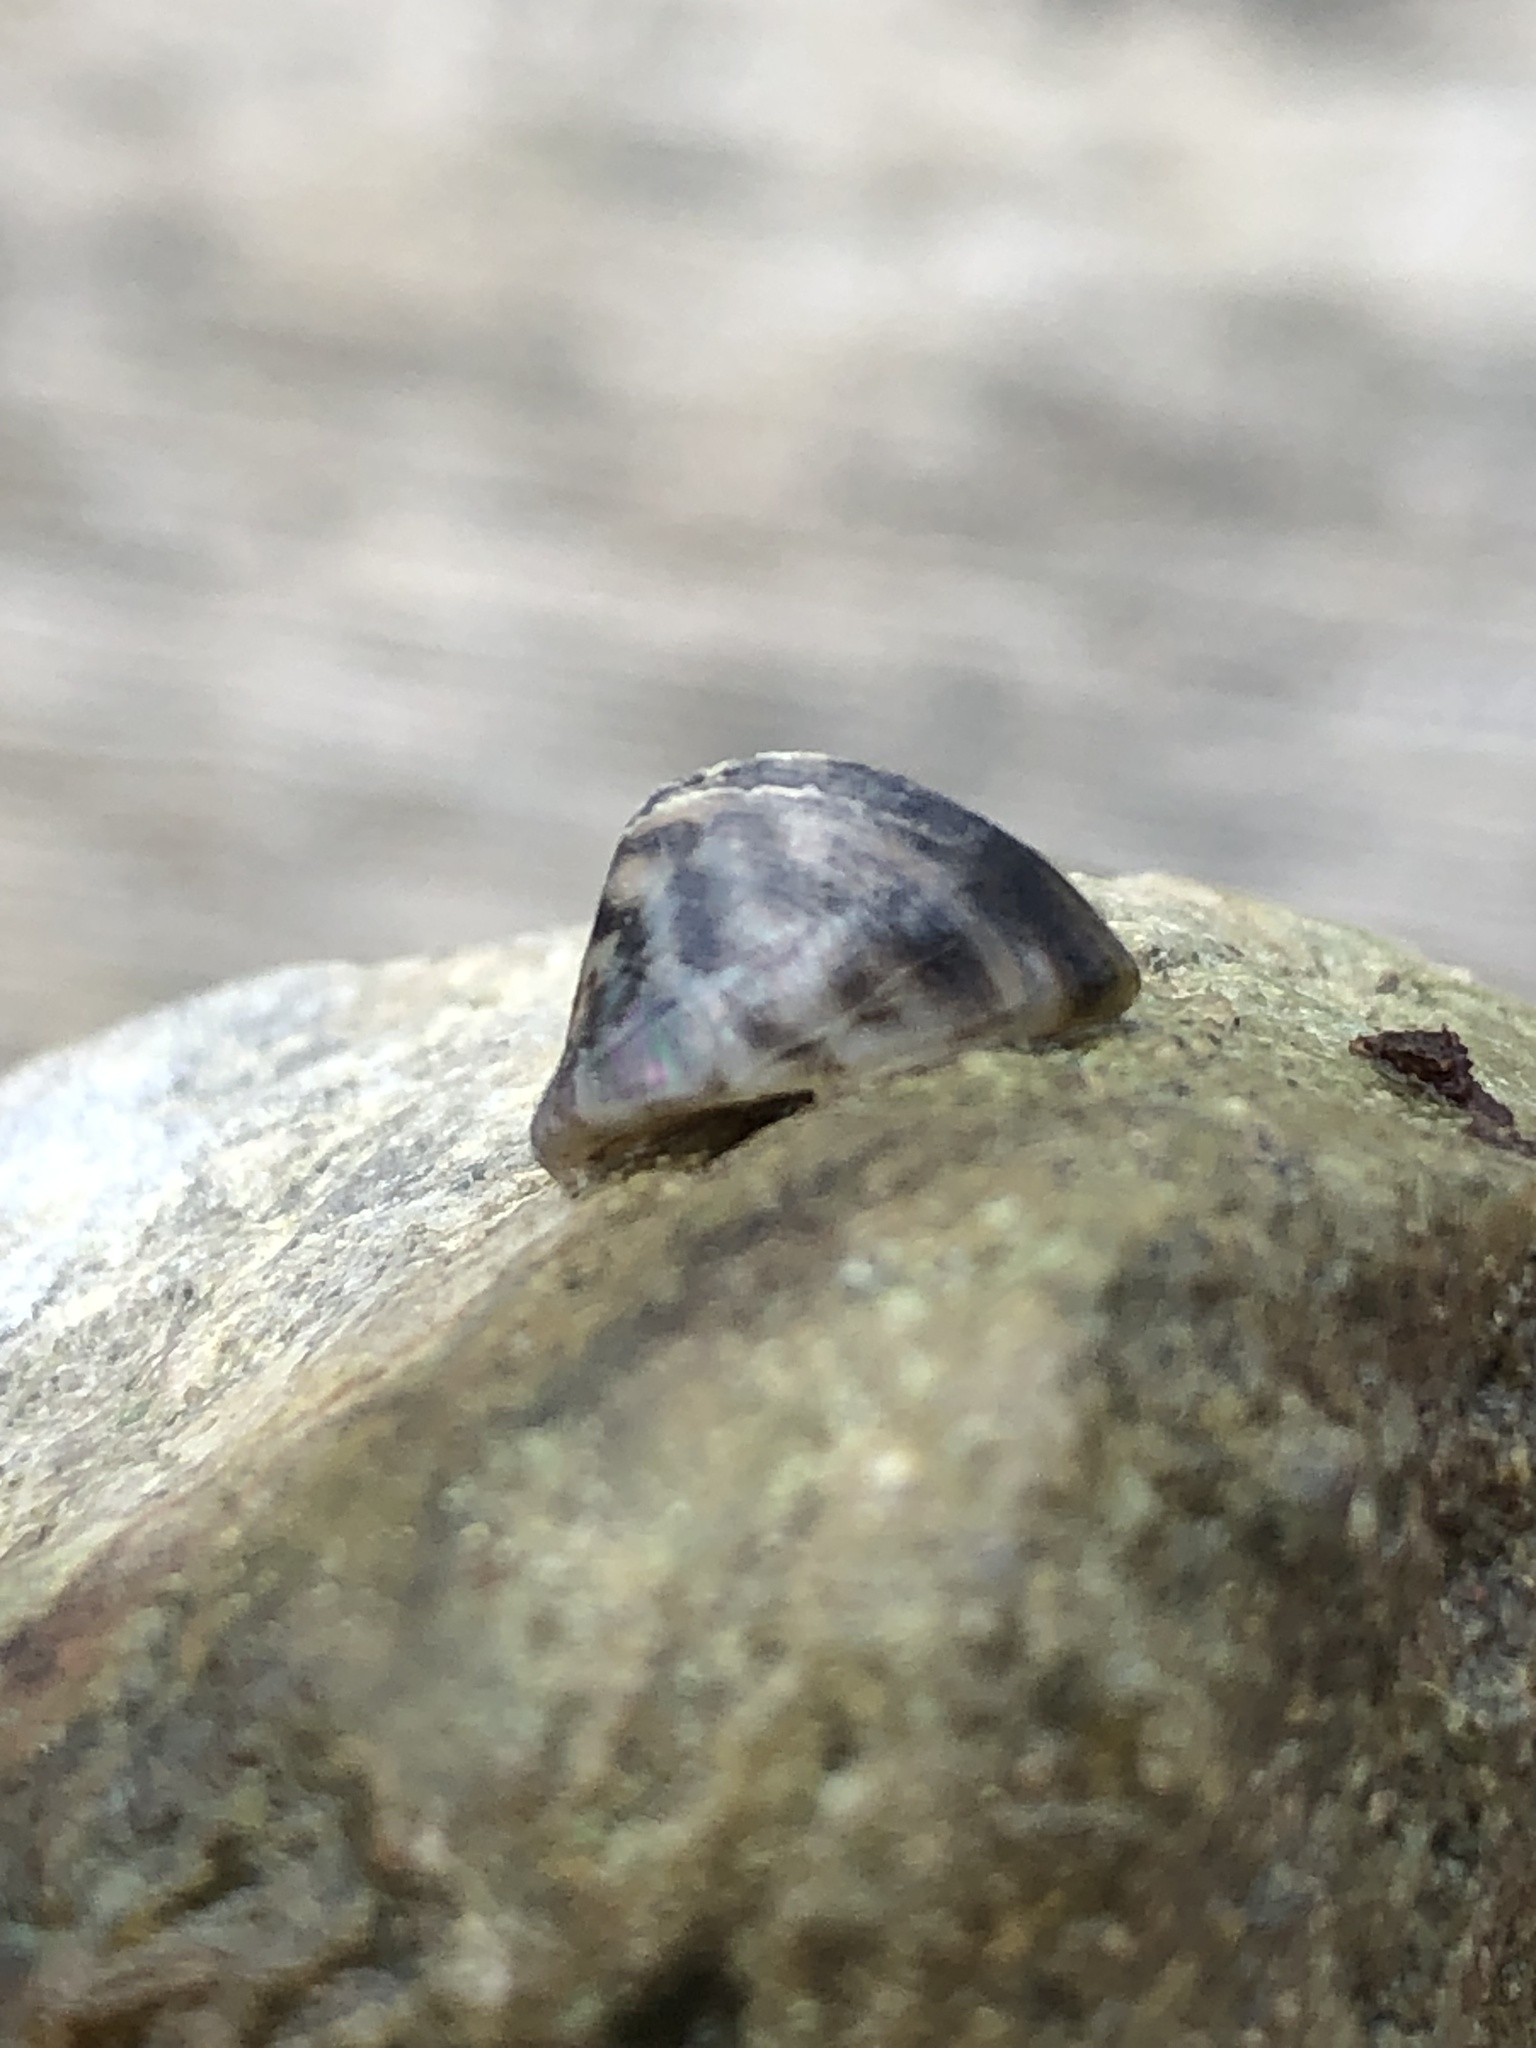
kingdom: Animalia
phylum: Mollusca
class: Bivalvia
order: Myida
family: Dreissenidae
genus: Dreissena
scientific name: Dreissena polymorpha
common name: Zebra mussel
